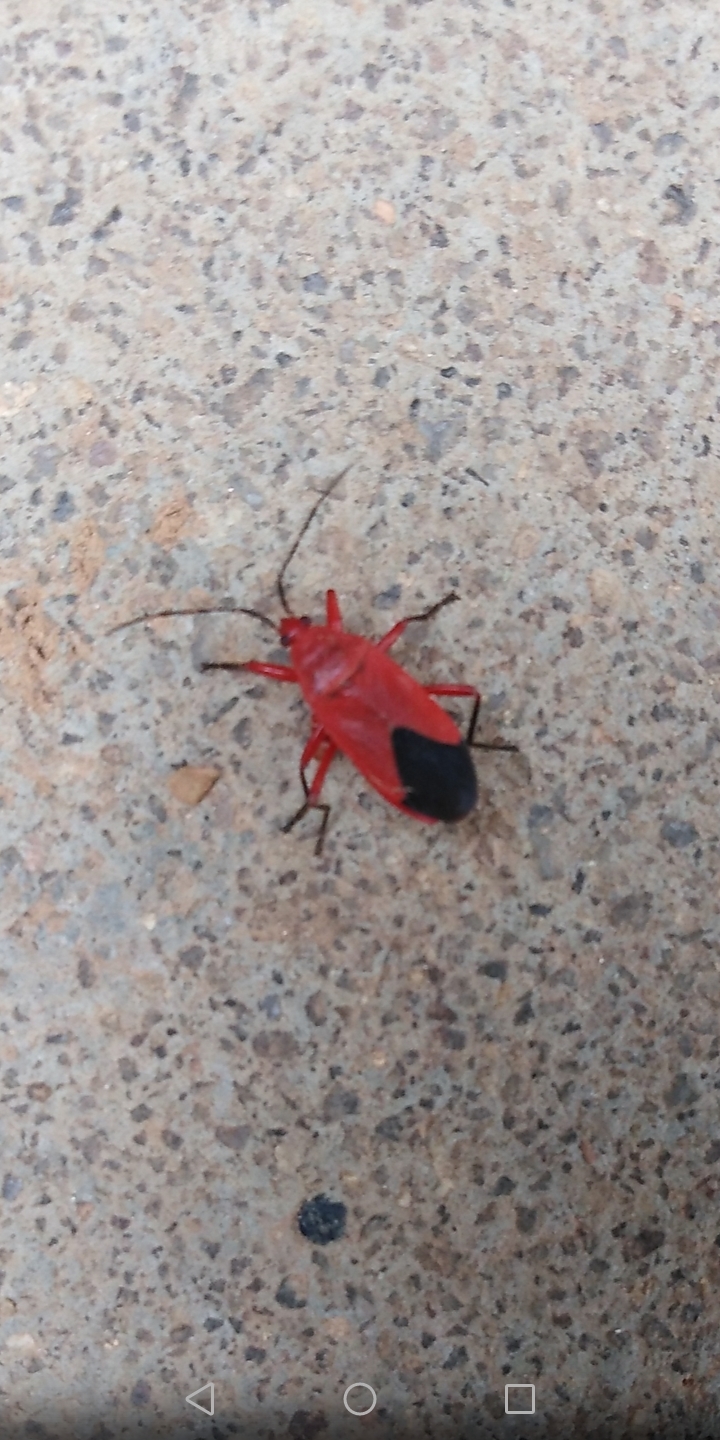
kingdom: Animalia
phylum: Arthropoda
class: Insecta
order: Hemiptera
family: Pyrrhocoridae
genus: Antilochus
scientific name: Antilochus coquebertii
